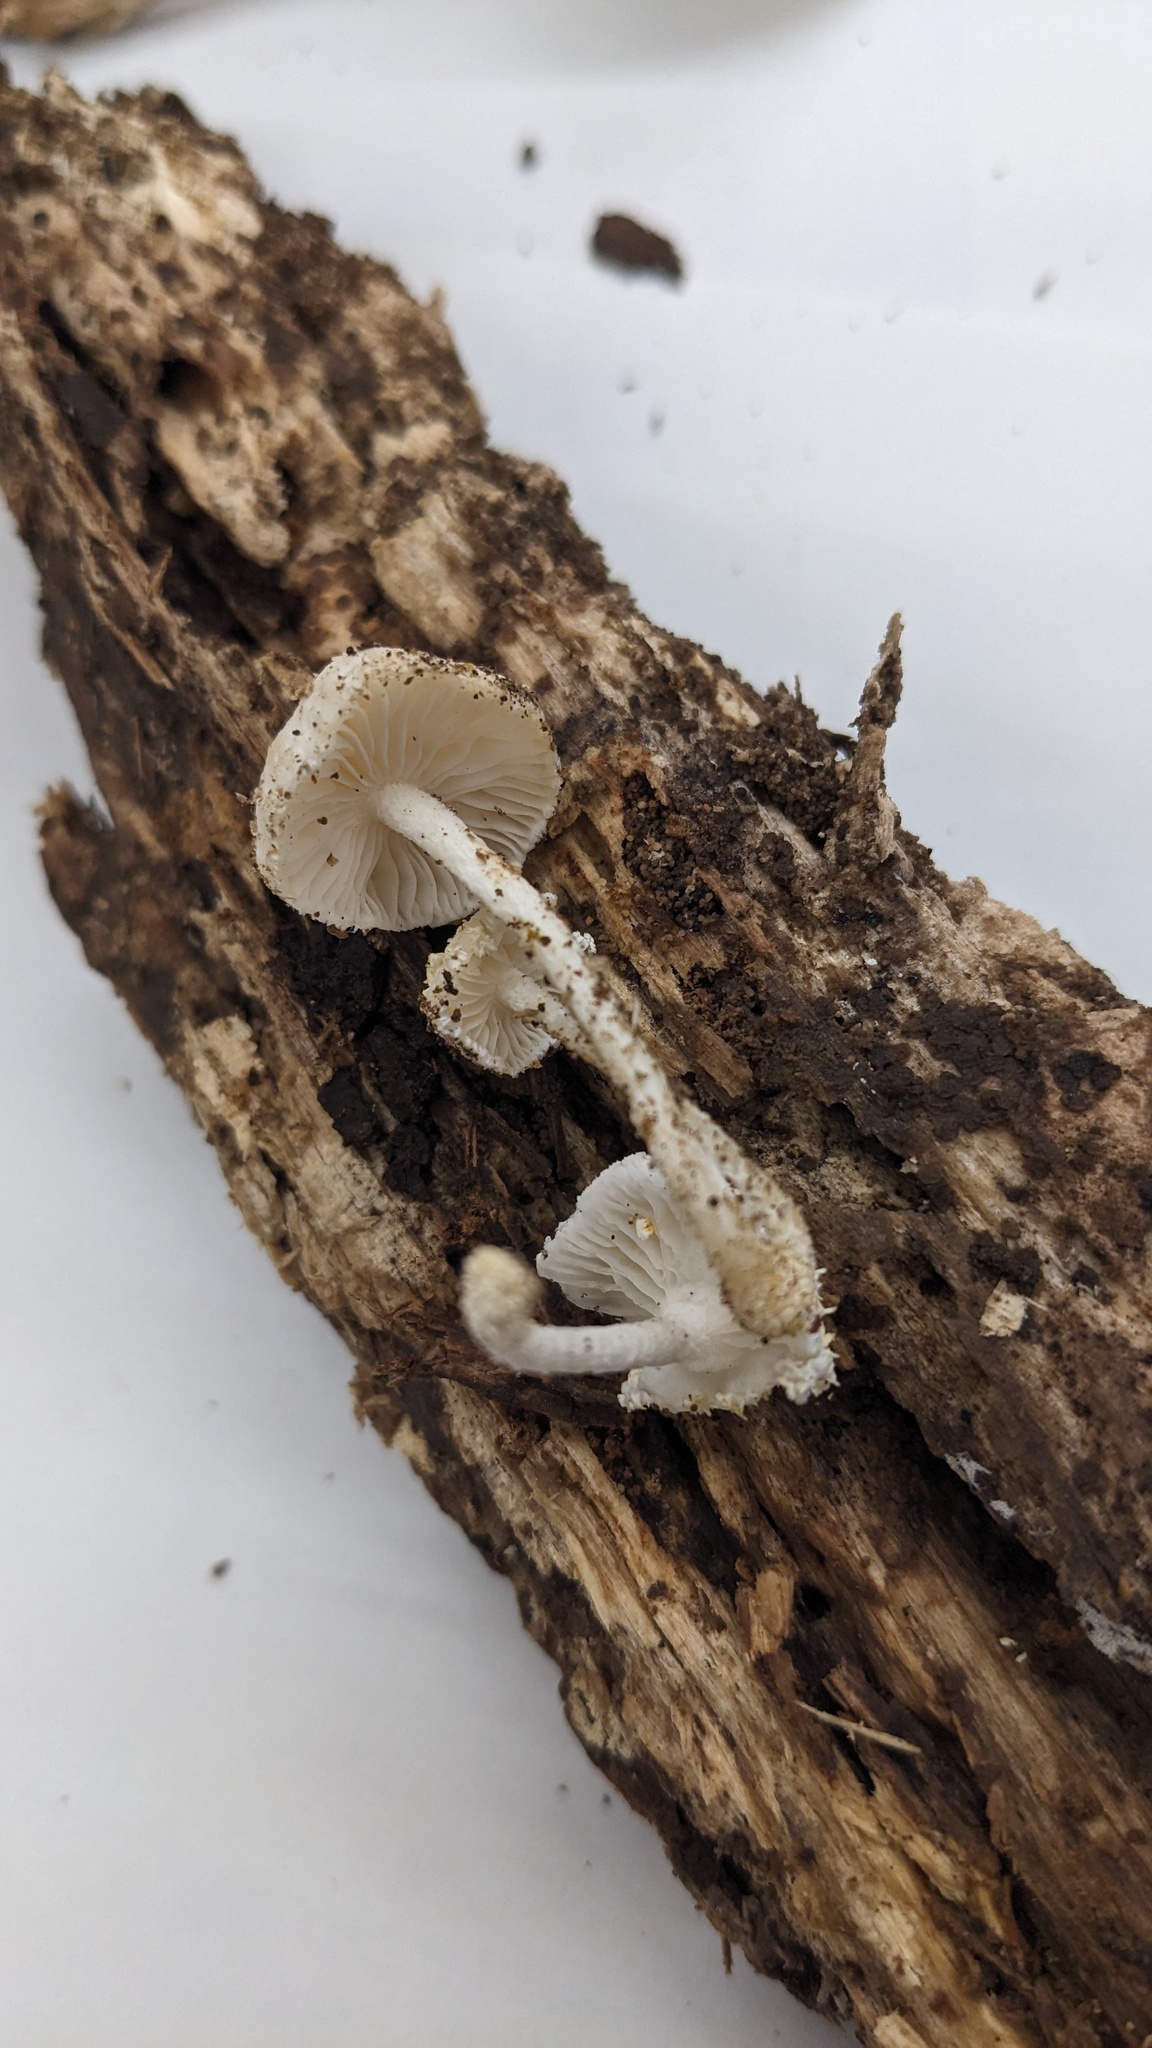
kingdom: Fungi
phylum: Basidiomycota
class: Agaricomycetes
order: Agaricales
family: Physalacriaceae
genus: Cyptotrama
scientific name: Cyptotrama asprata
